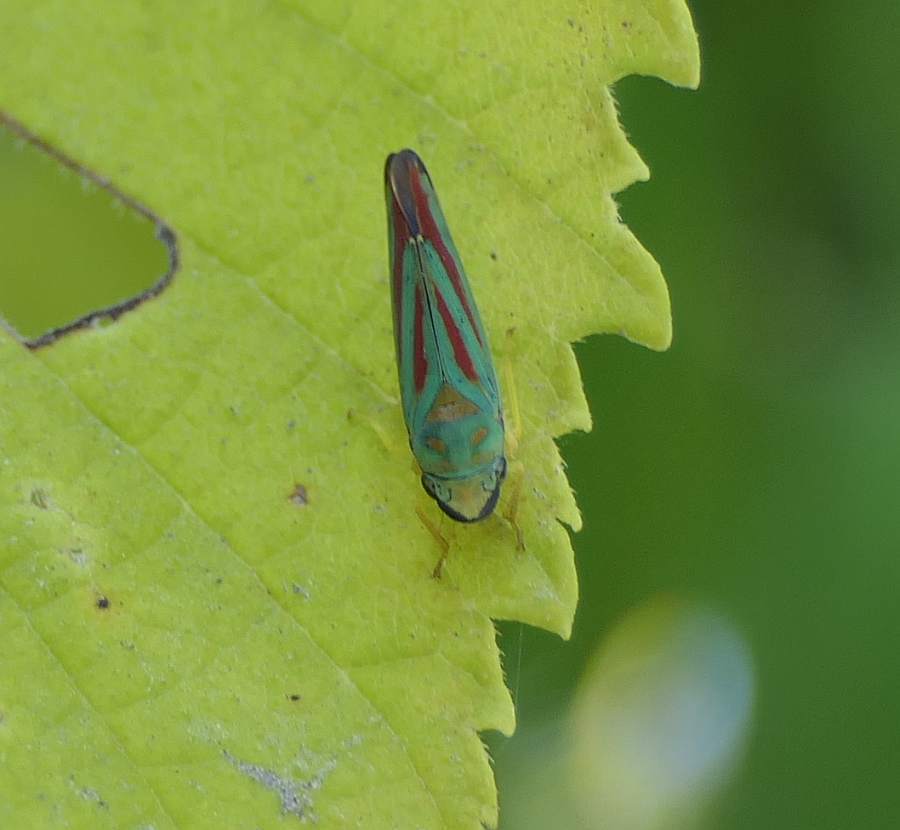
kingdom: Animalia
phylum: Arthropoda
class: Insecta
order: Hemiptera
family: Cicadellidae
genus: Graphocephala
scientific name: Graphocephala fennahi
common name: Rhododendron leafhopper
